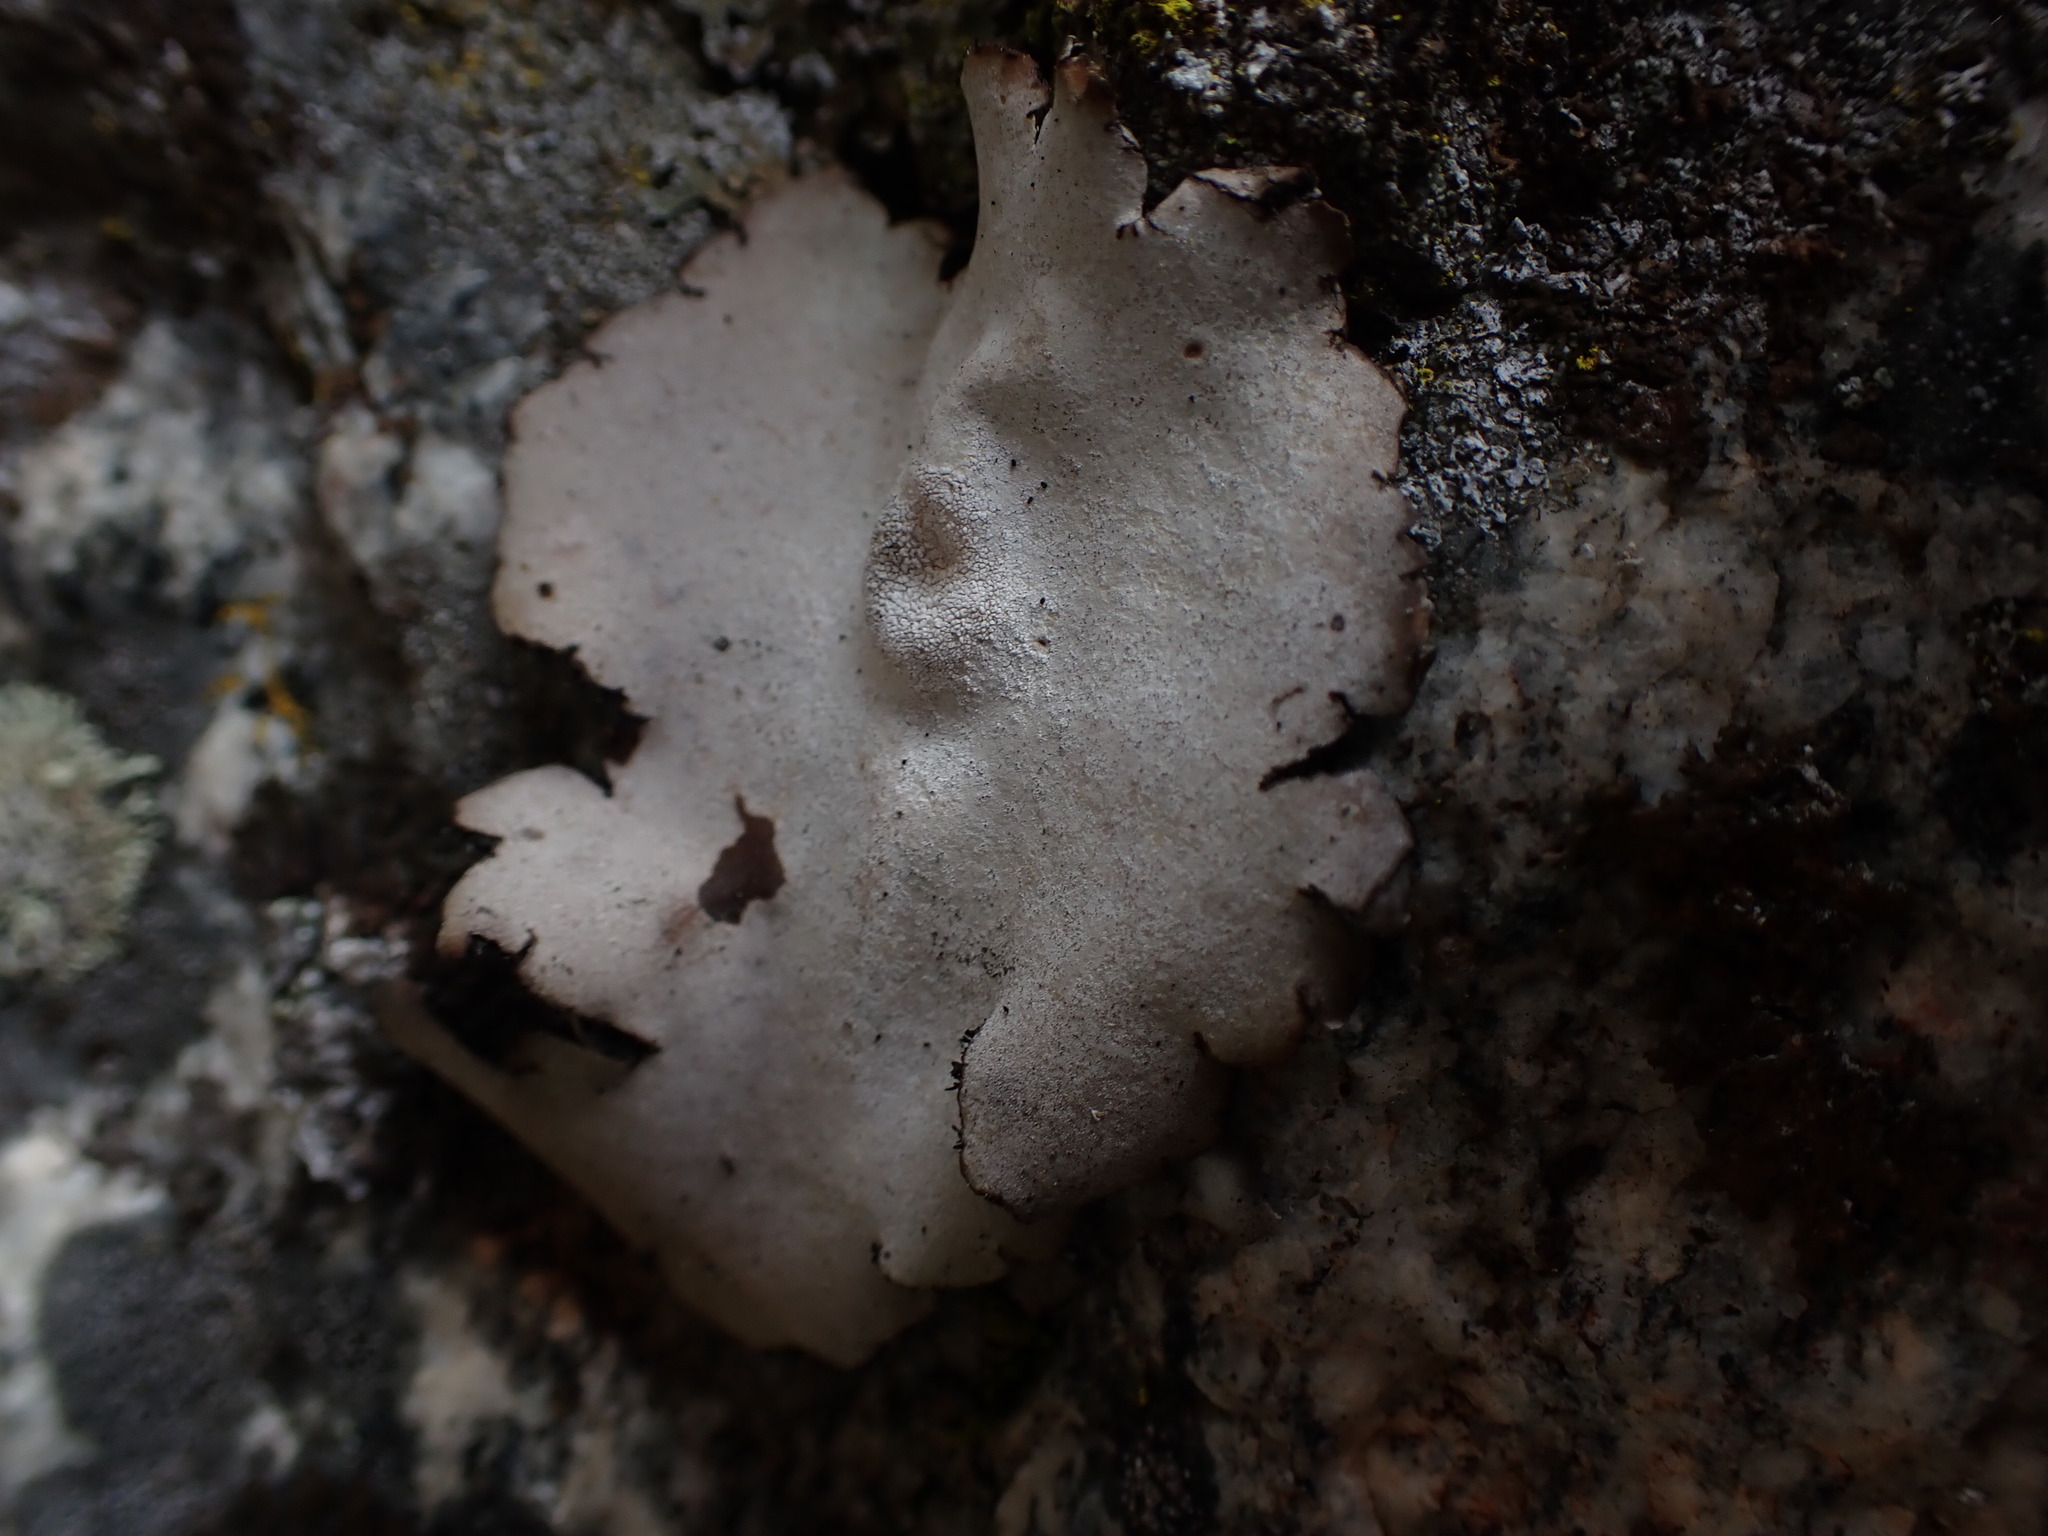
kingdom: Fungi
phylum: Ascomycota
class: Lecanoromycetes
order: Umbilicariales
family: Umbilicariaceae
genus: Umbilicaria
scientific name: Umbilicaria americana
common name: Frosted rock tripe
